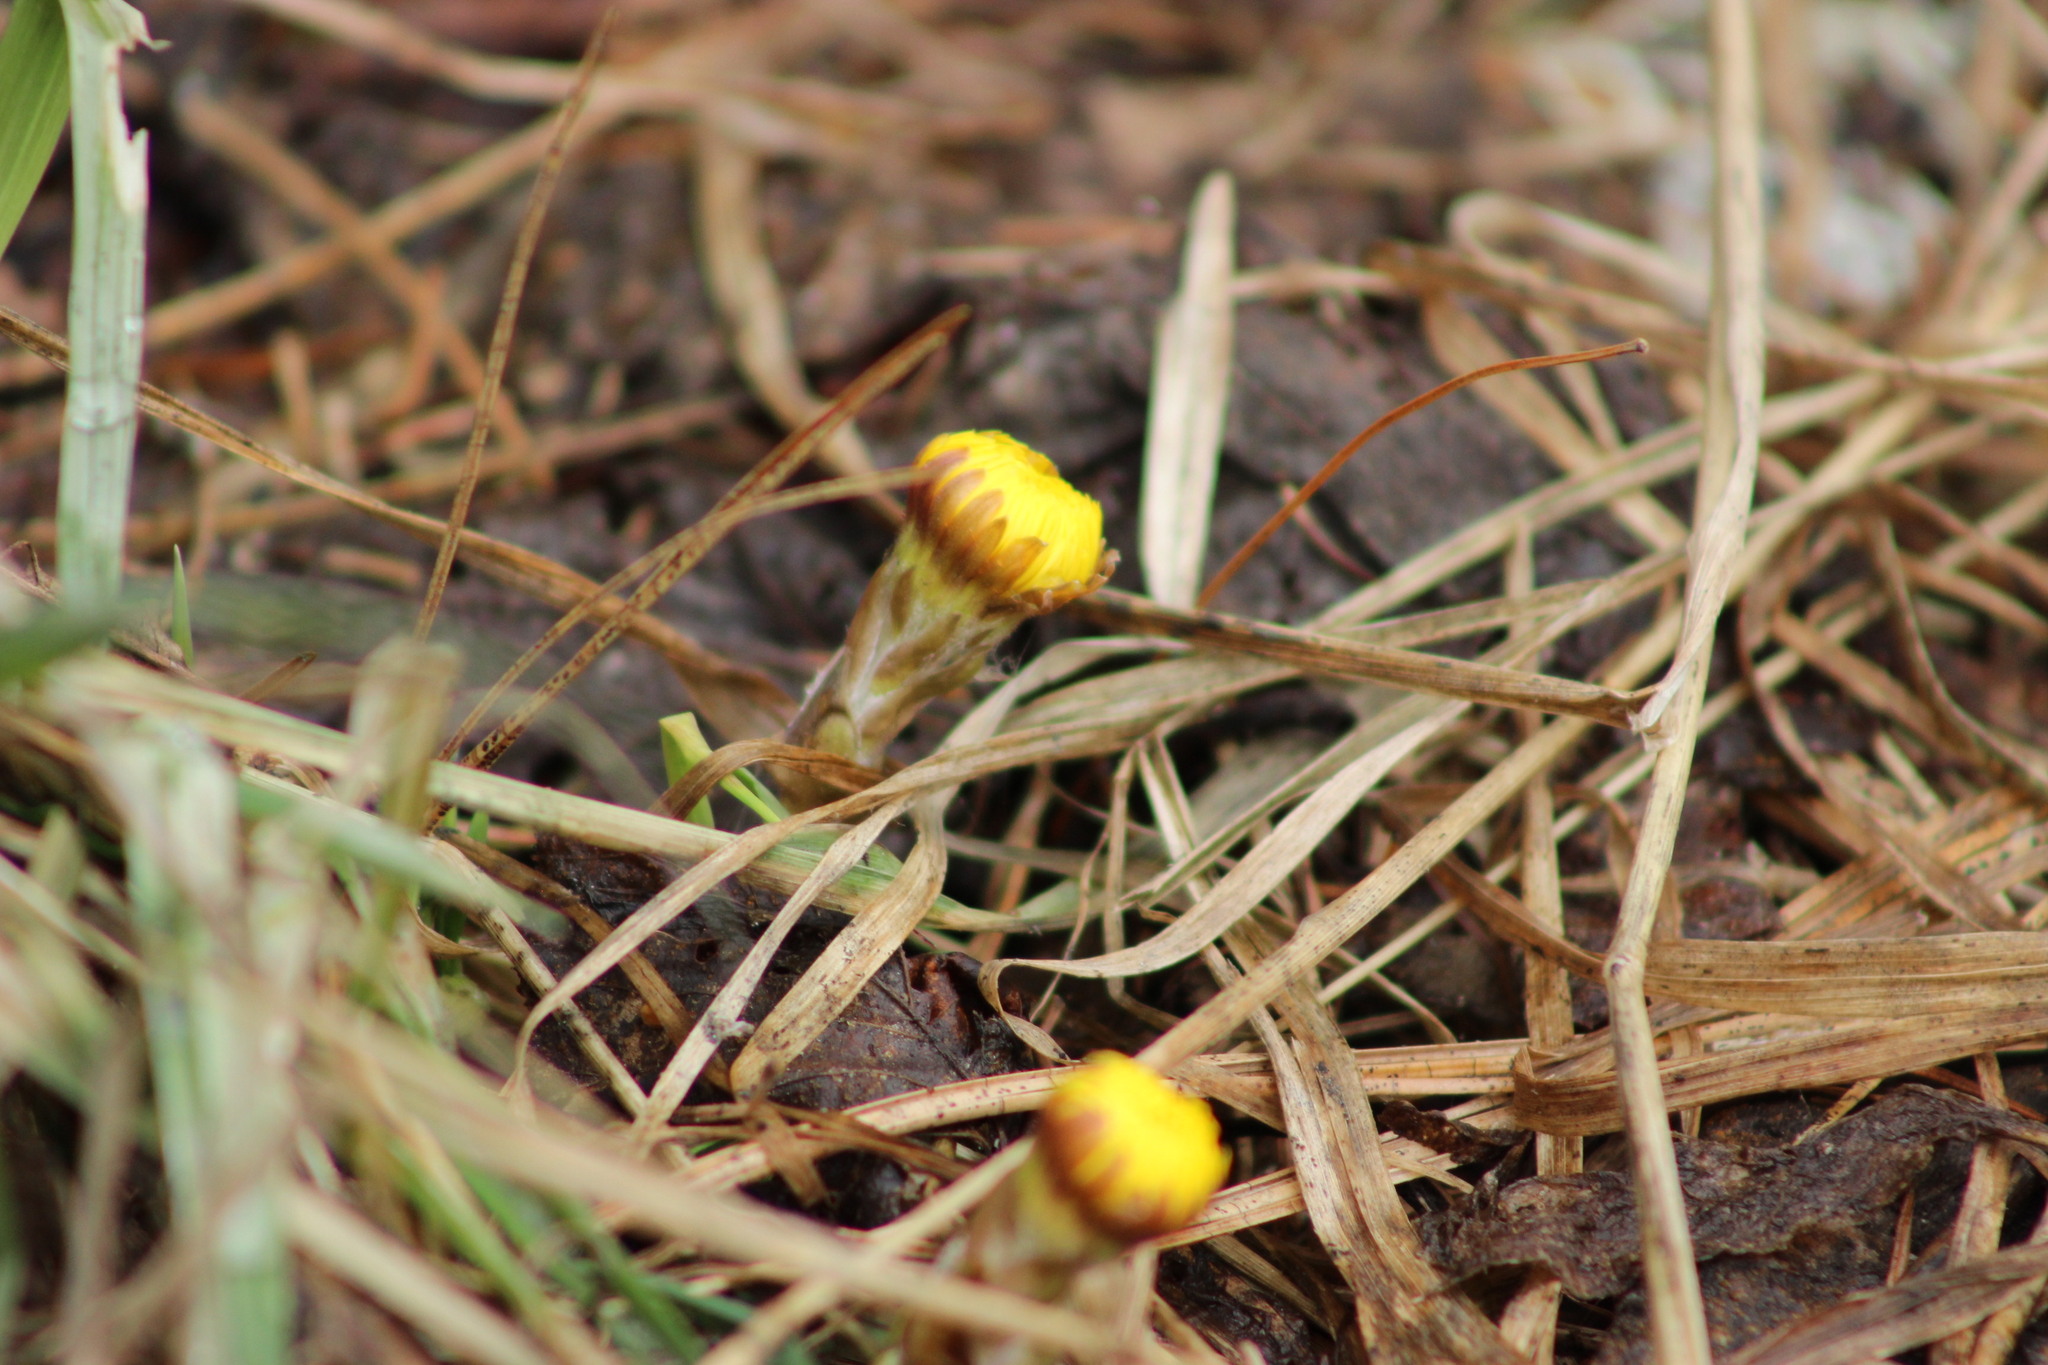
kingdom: Plantae
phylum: Tracheophyta
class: Magnoliopsida
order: Asterales
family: Asteraceae
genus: Tussilago
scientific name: Tussilago farfara
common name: Coltsfoot
